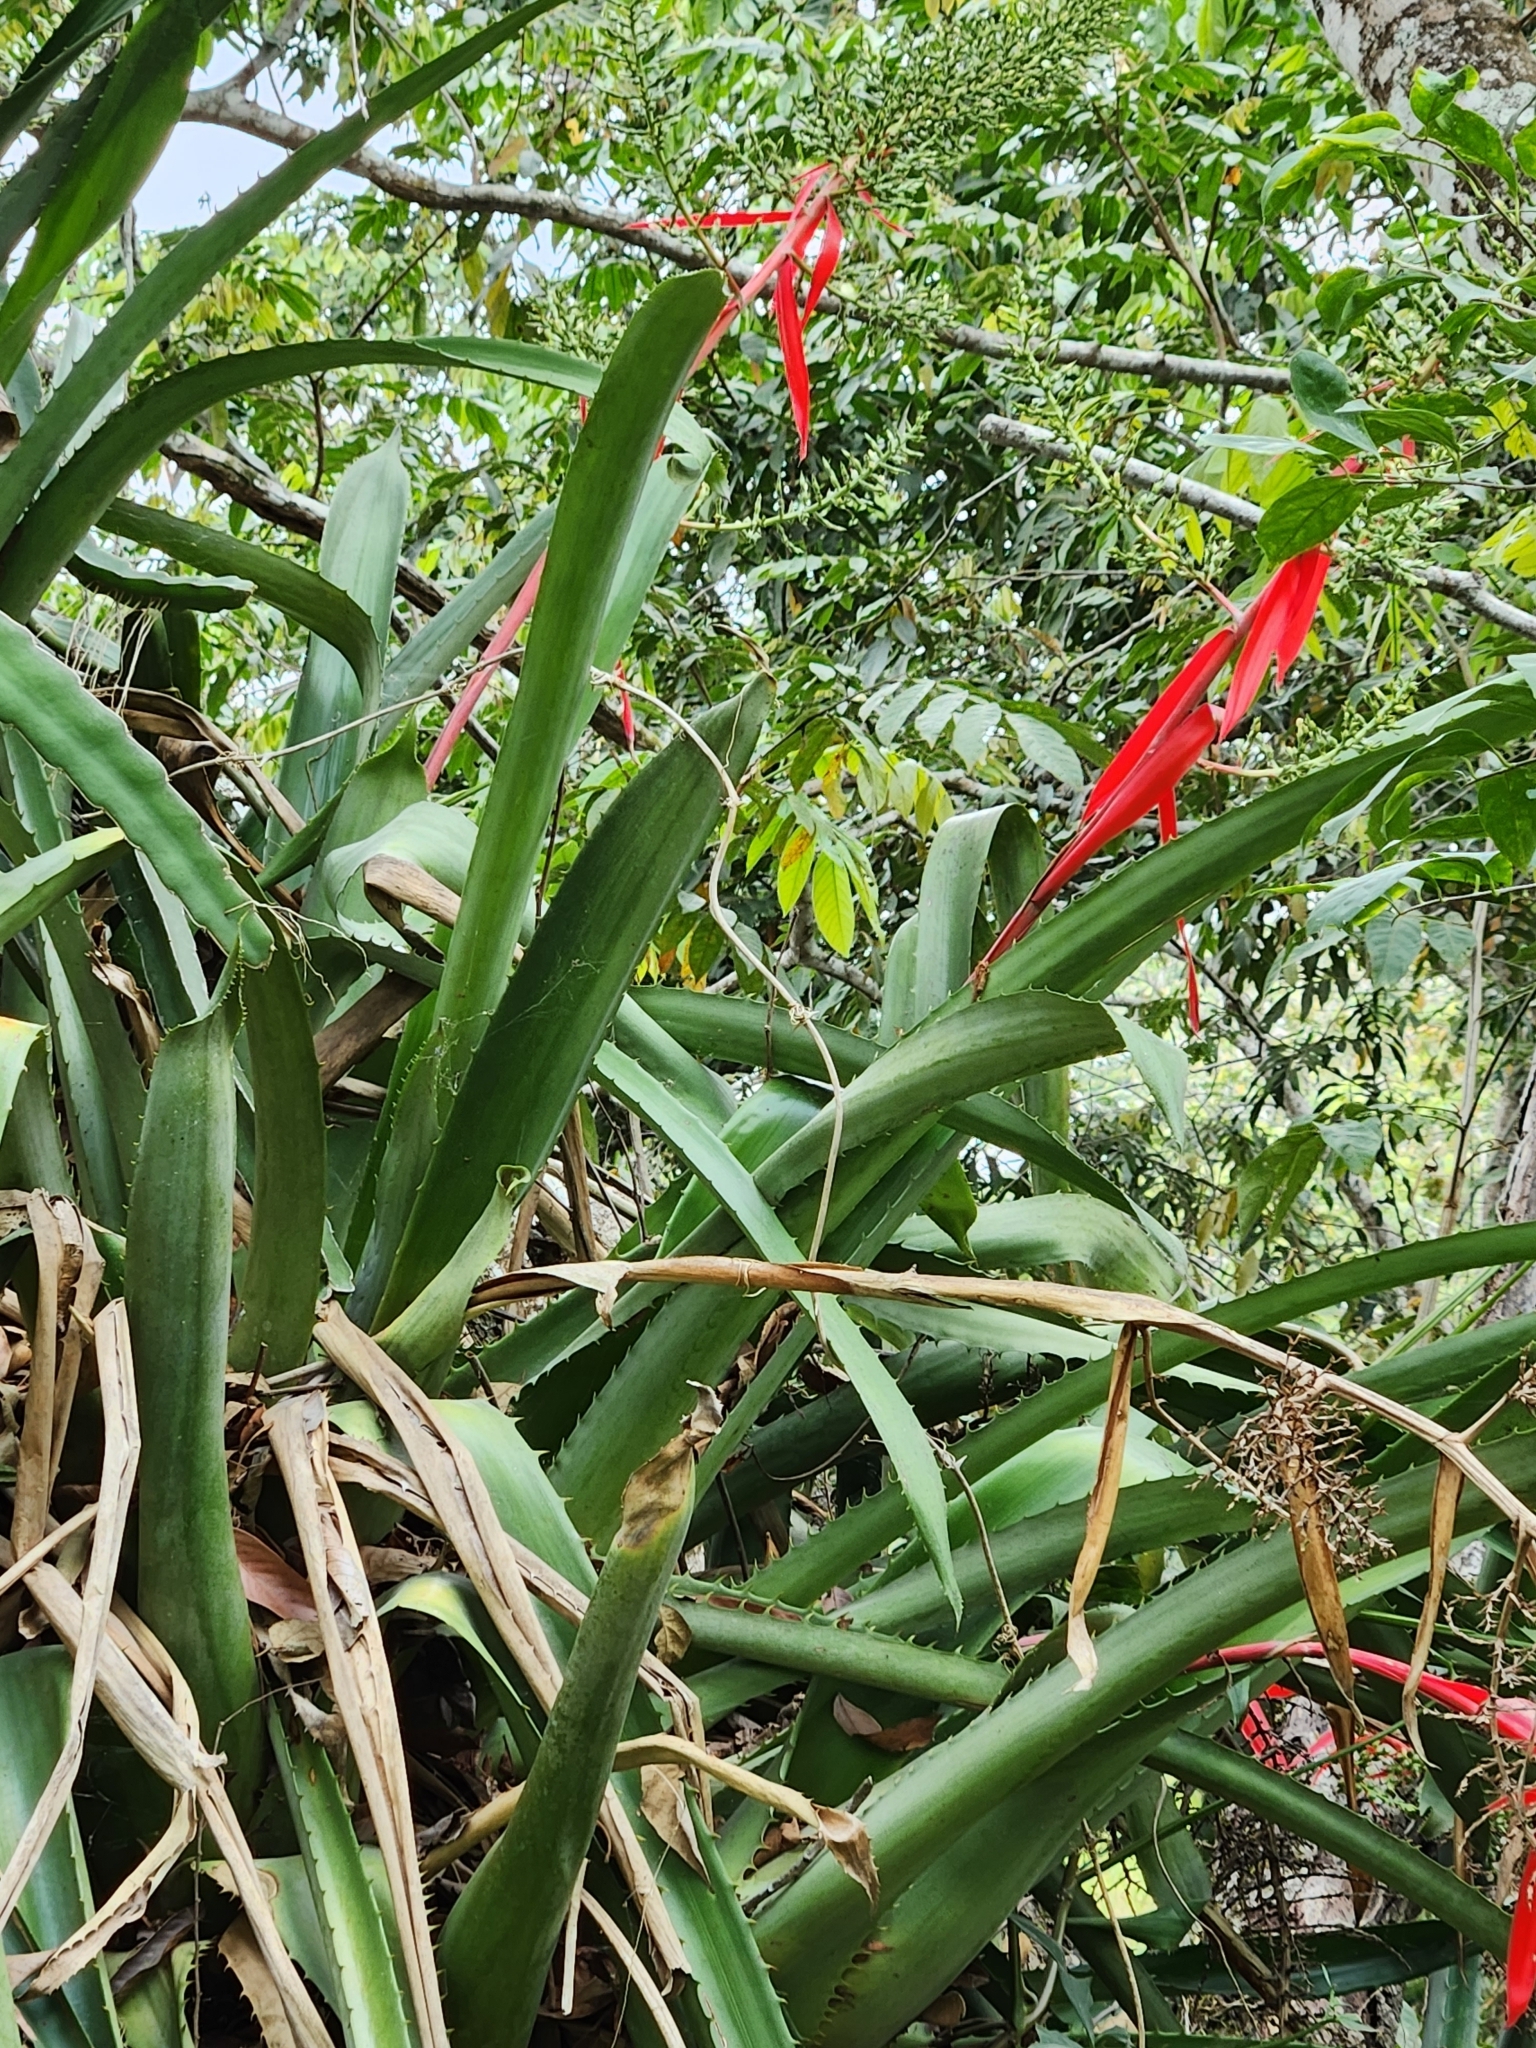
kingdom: Plantae
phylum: Tracheophyta
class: Liliopsida
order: Poales
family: Bromeliaceae
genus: Aechmea
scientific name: Aechmea bracteata
